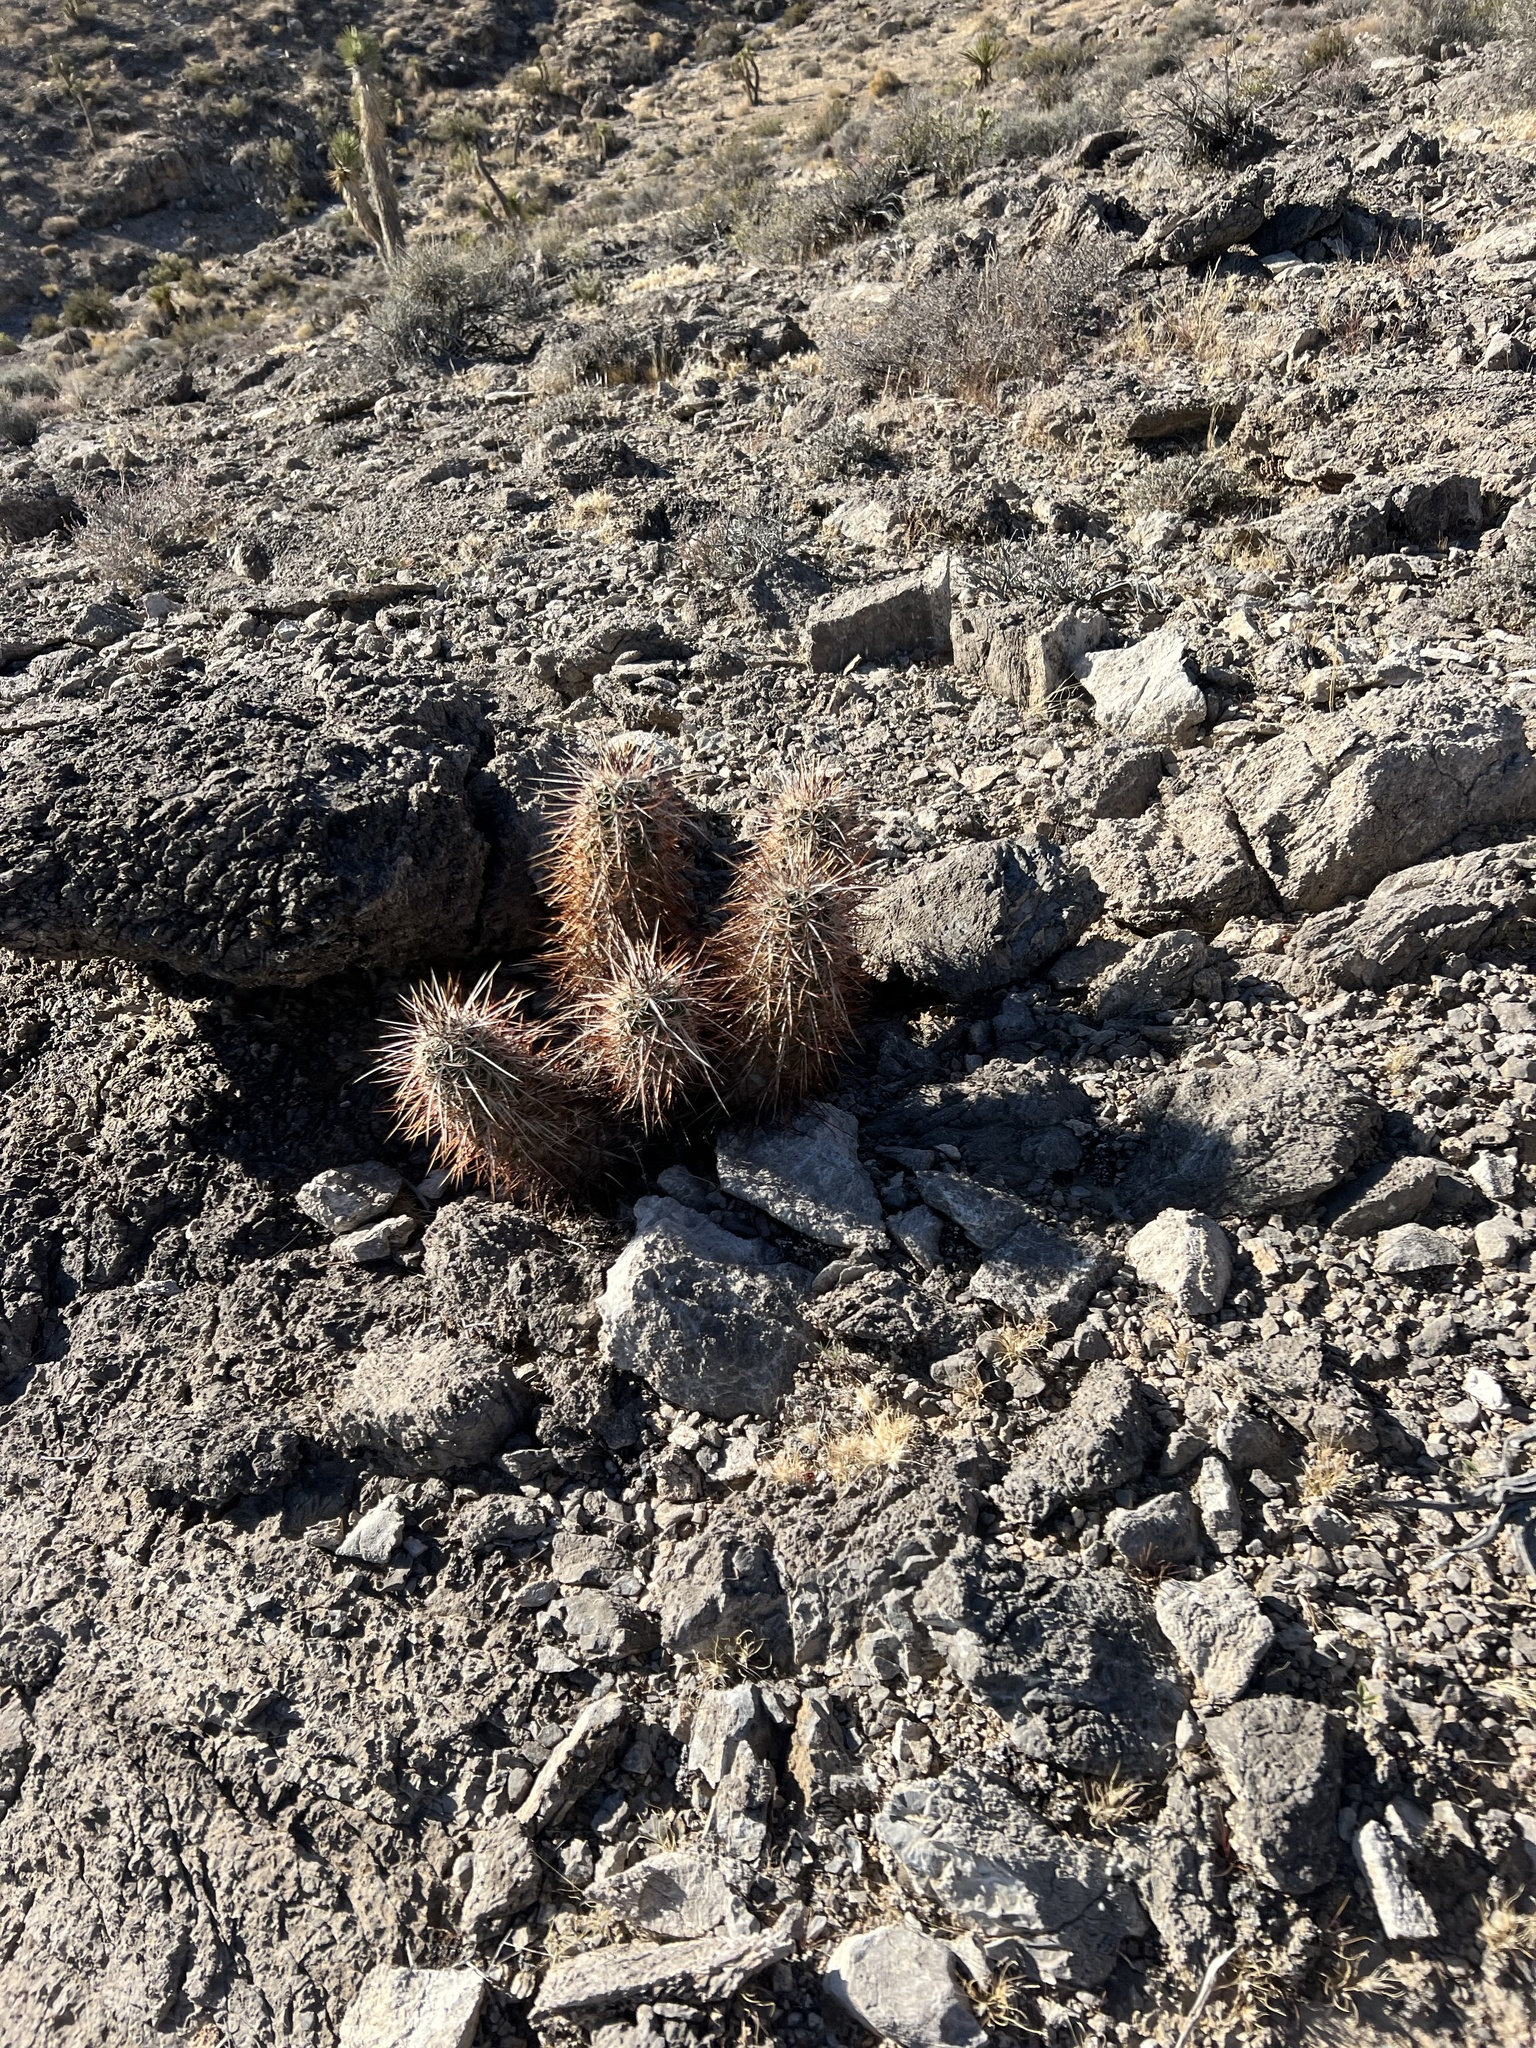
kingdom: Plantae
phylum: Tracheophyta
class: Magnoliopsida
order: Caryophyllales
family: Cactaceae
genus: Echinocereus
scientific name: Echinocereus engelmannii
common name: Engelmann's hedgehog cactus
